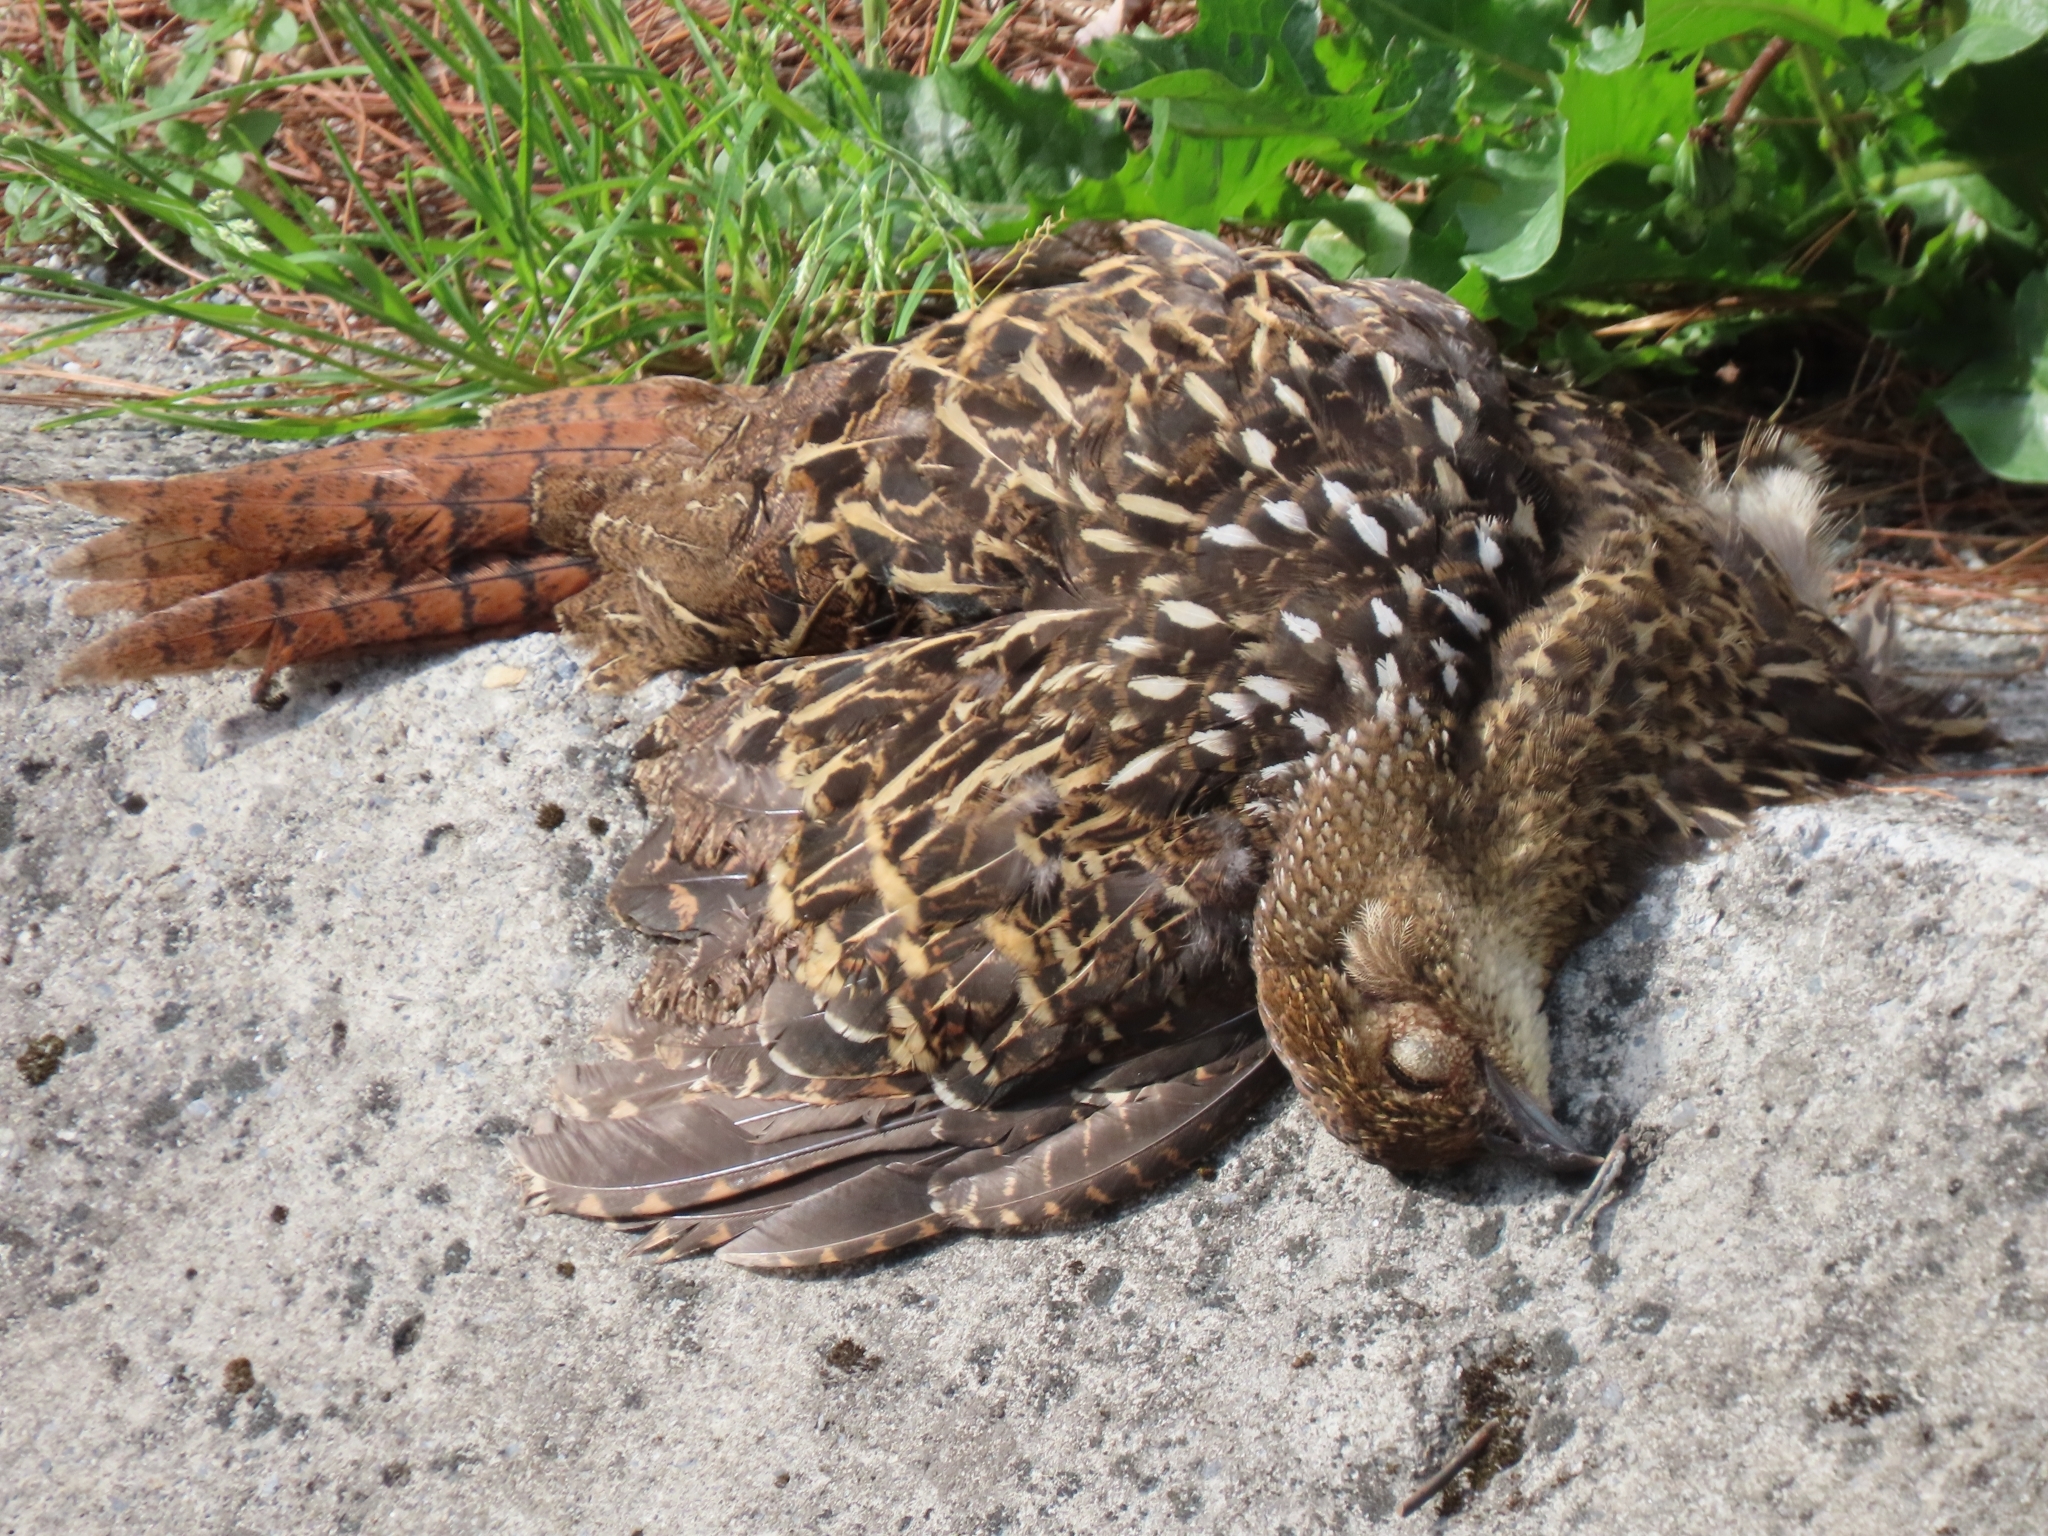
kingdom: Animalia
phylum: Chordata
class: Aves
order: Galliformes
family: Phasianidae
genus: Syrmaticus
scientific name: Syrmaticus mikado
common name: Mikado pheasant
